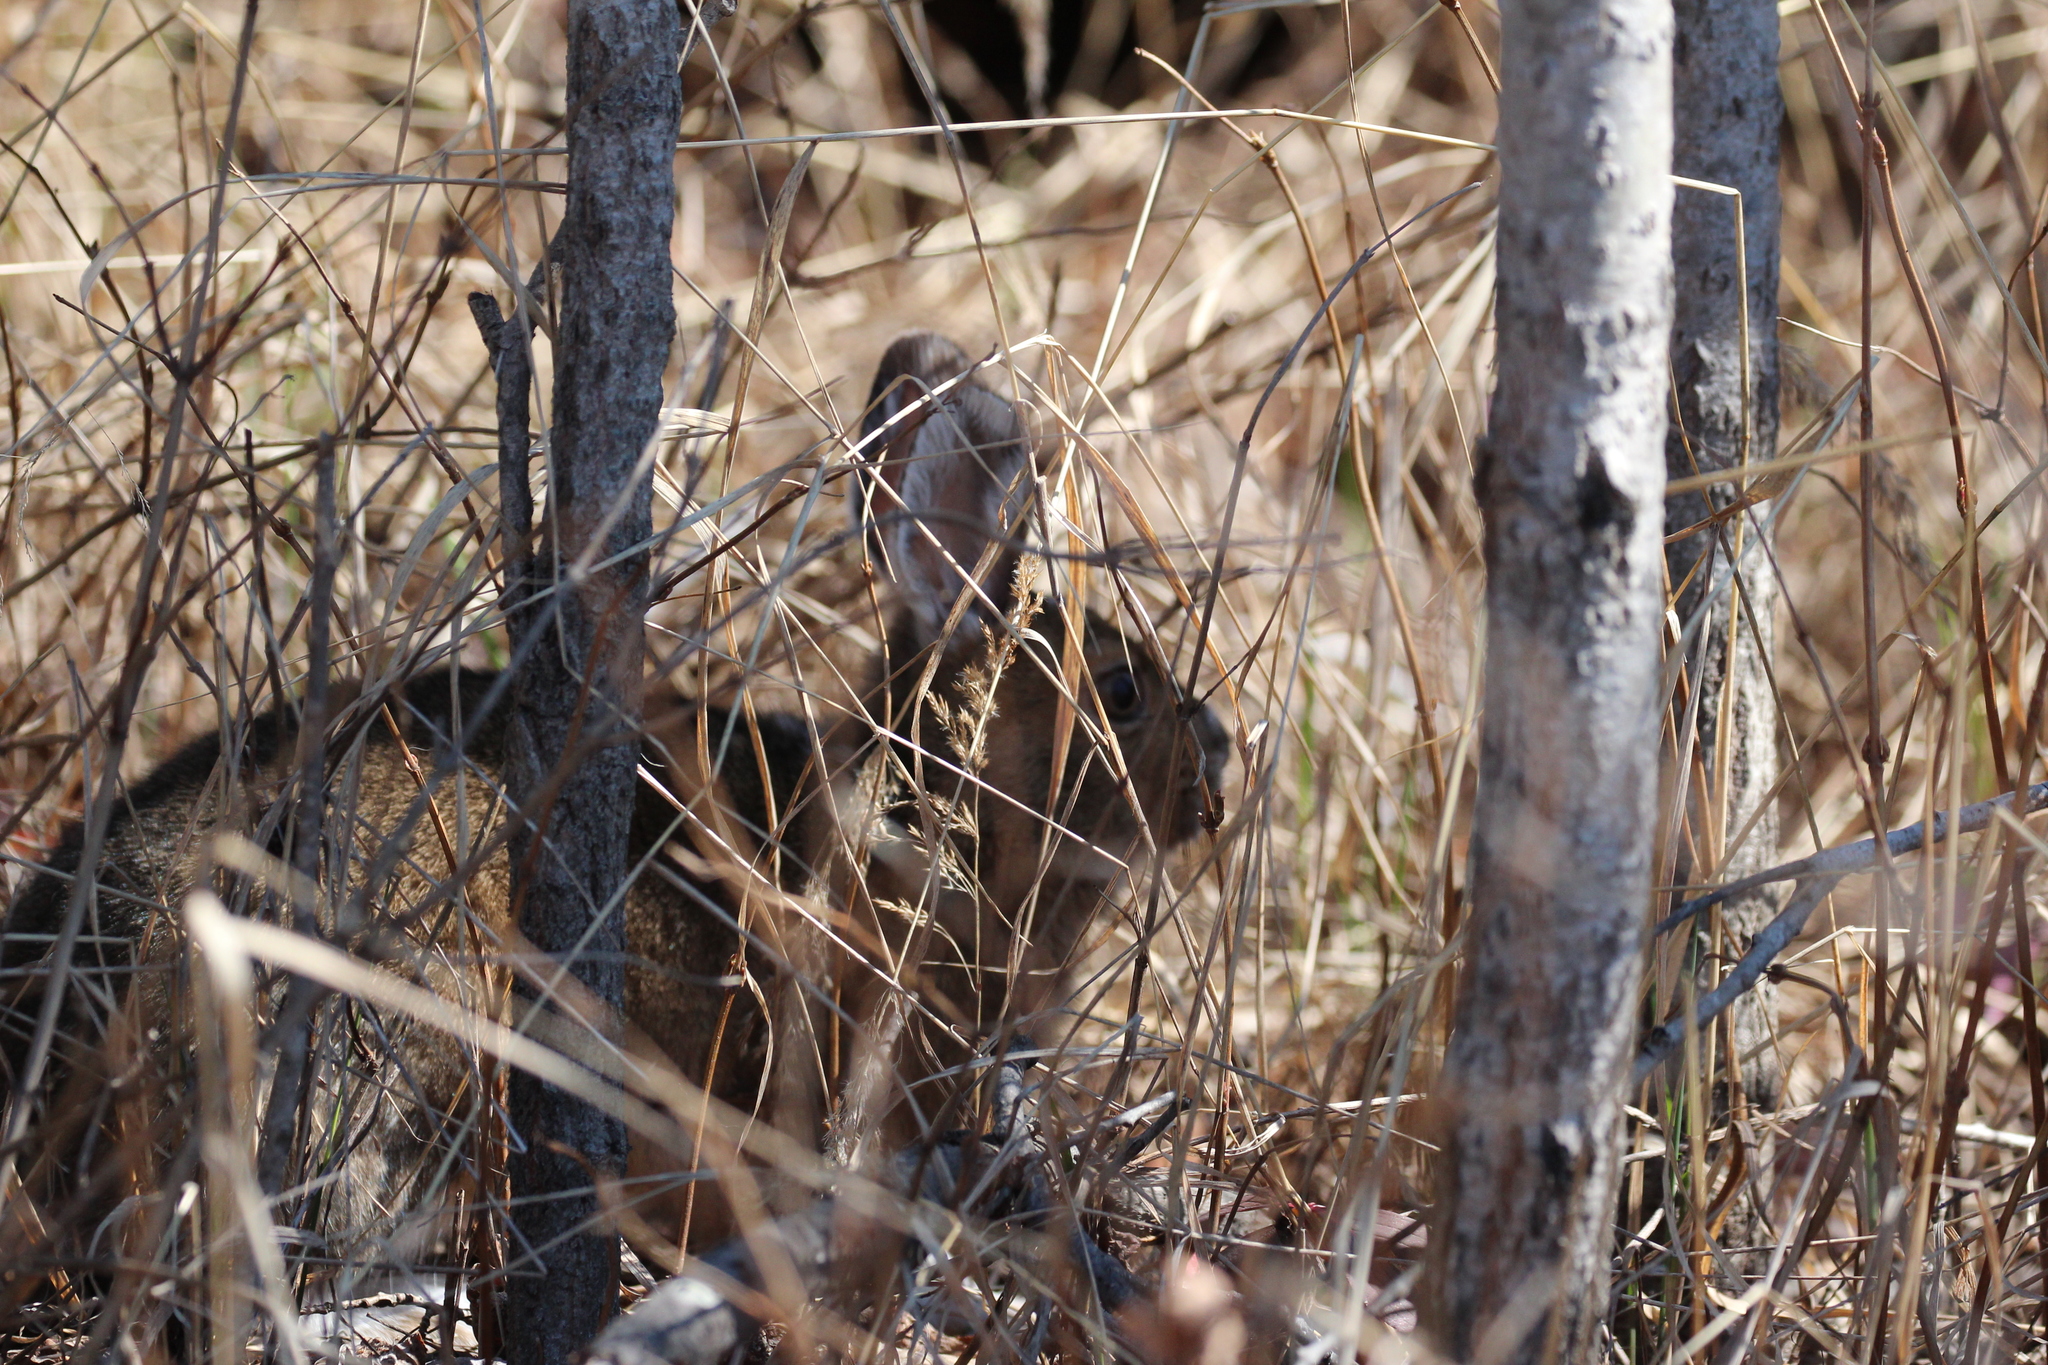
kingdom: Animalia
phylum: Chordata
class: Mammalia
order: Lagomorpha
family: Leporidae
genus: Lepus
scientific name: Lepus americanus
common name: Snowshoe hare
